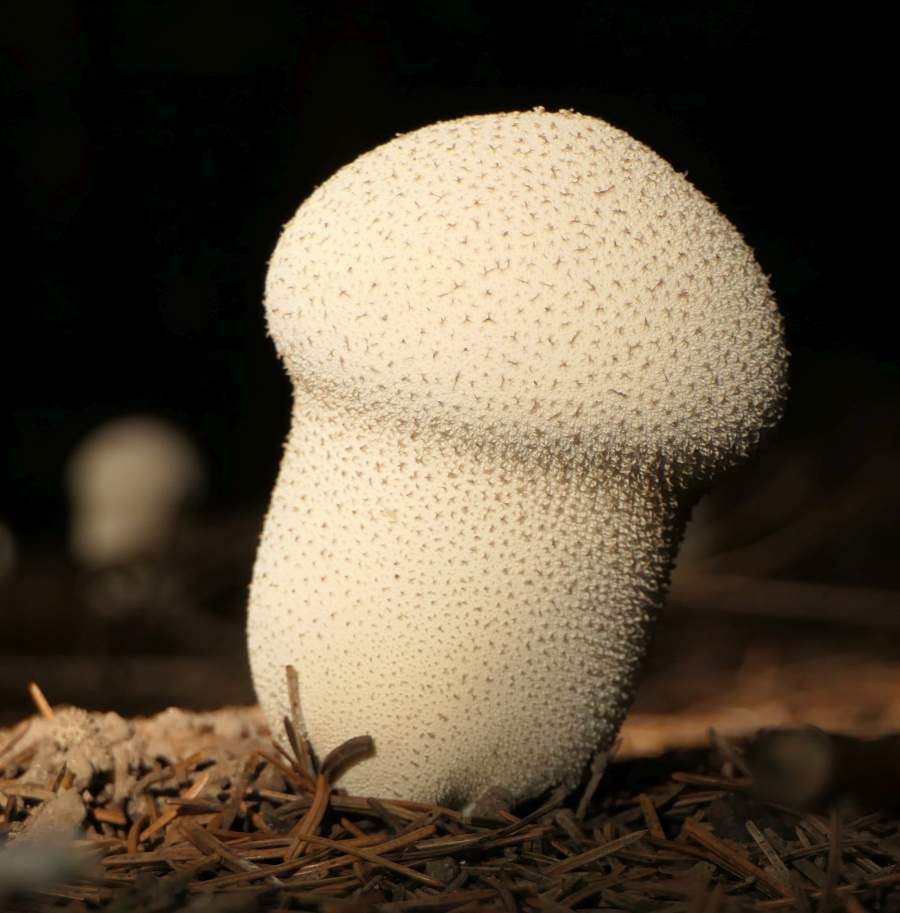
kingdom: Fungi
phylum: Basidiomycota
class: Agaricomycetes
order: Agaricales
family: Lycoperdaceae
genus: Lycoperdon
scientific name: Lycoperdon perlatum
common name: Common puffball
